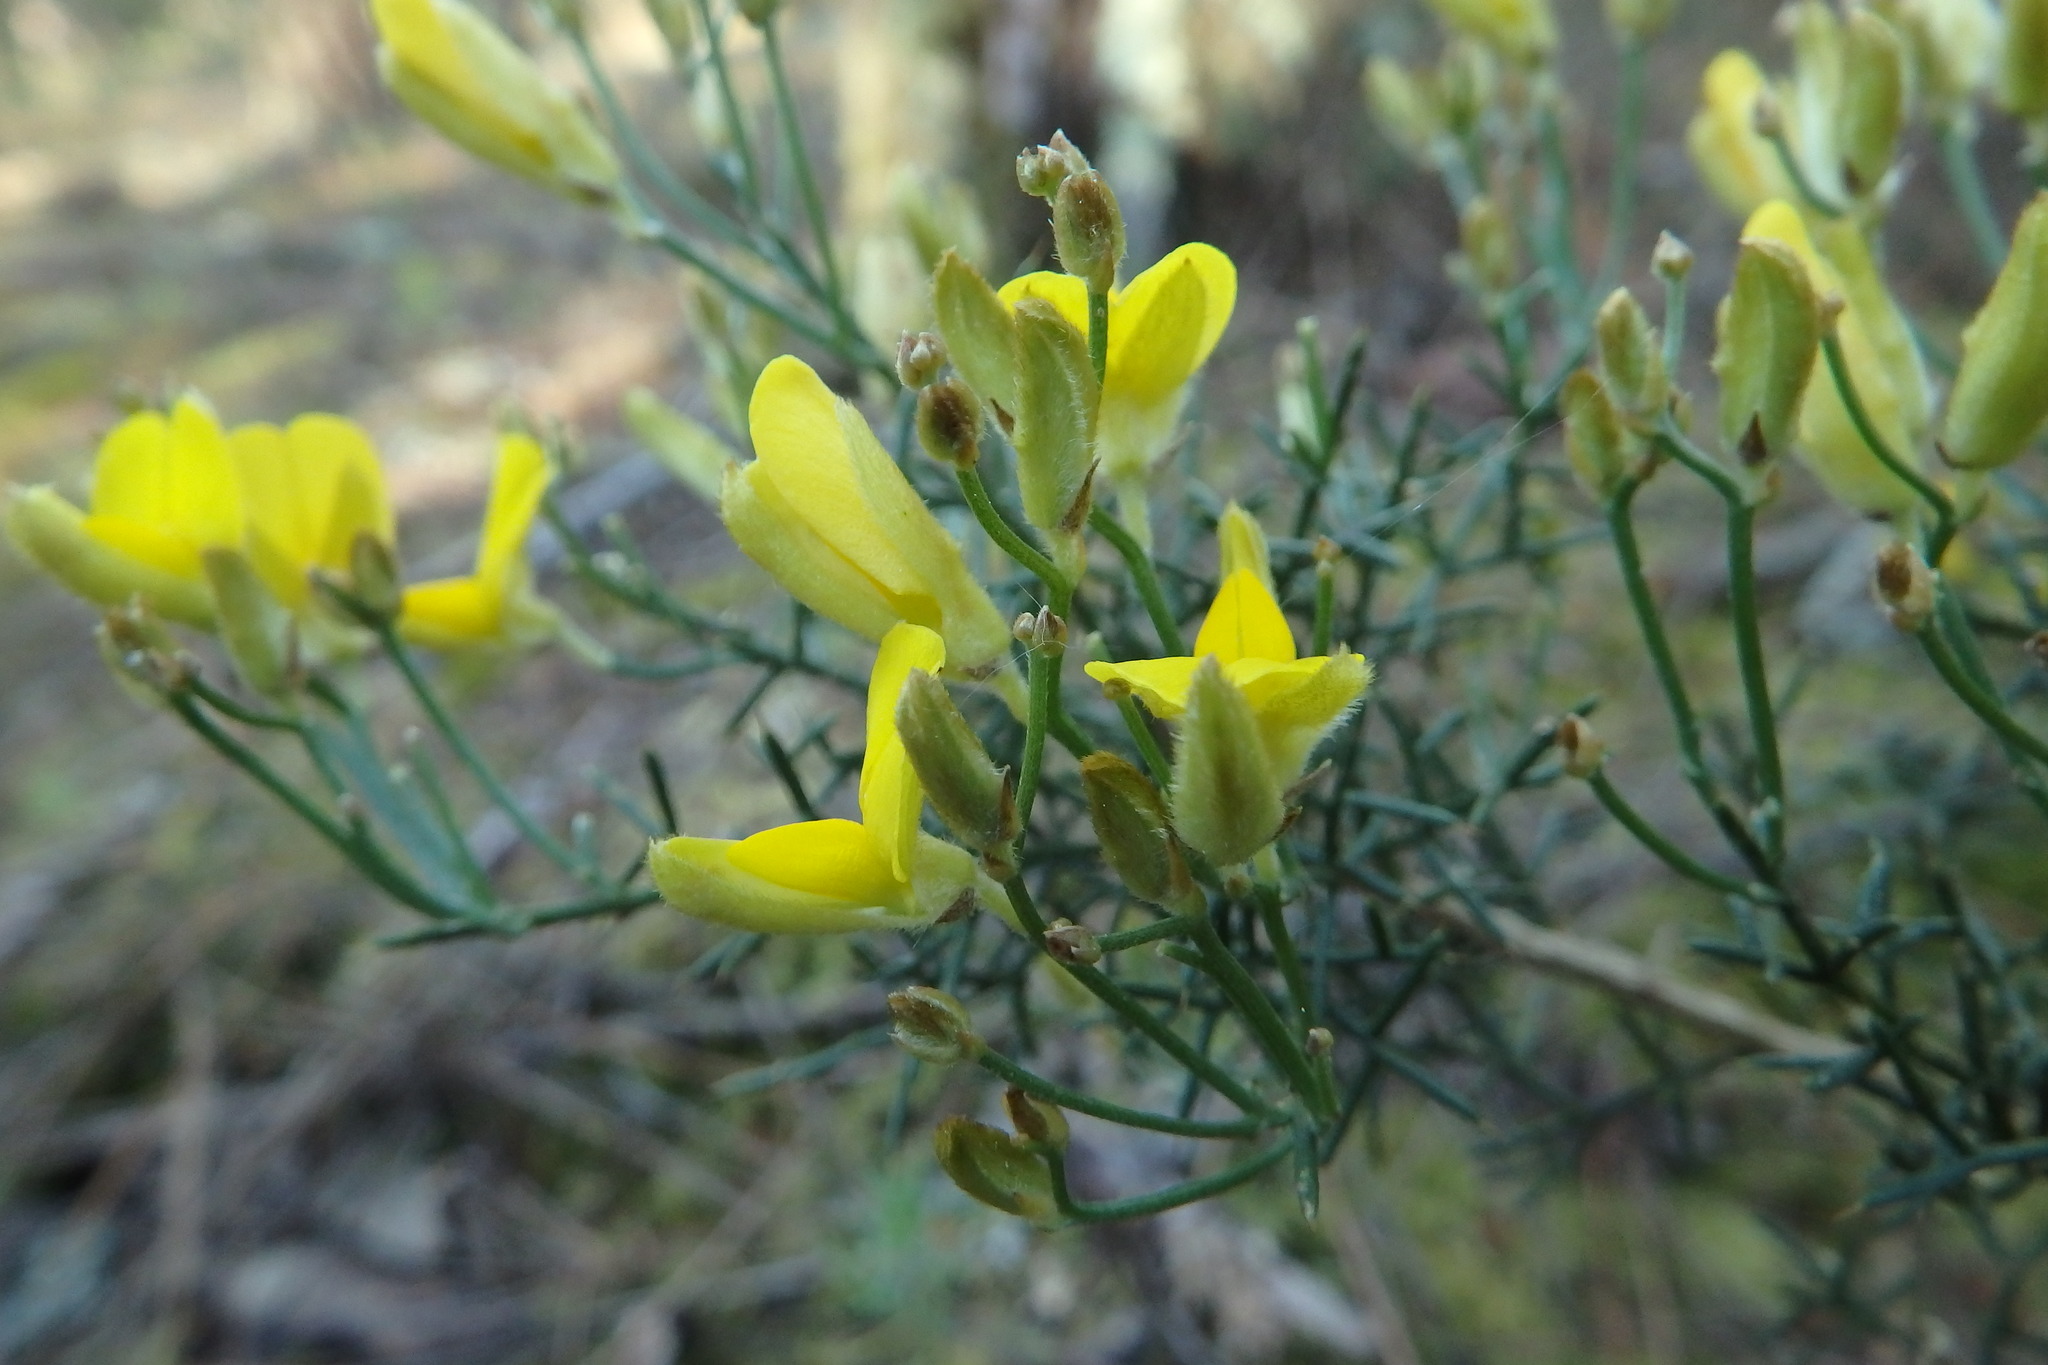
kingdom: Plantae
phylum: Tracheophyta
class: Magnoliopsida
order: Fabales
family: Fabaceae
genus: Stauracanthus
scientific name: Stauracanthus genistoides
